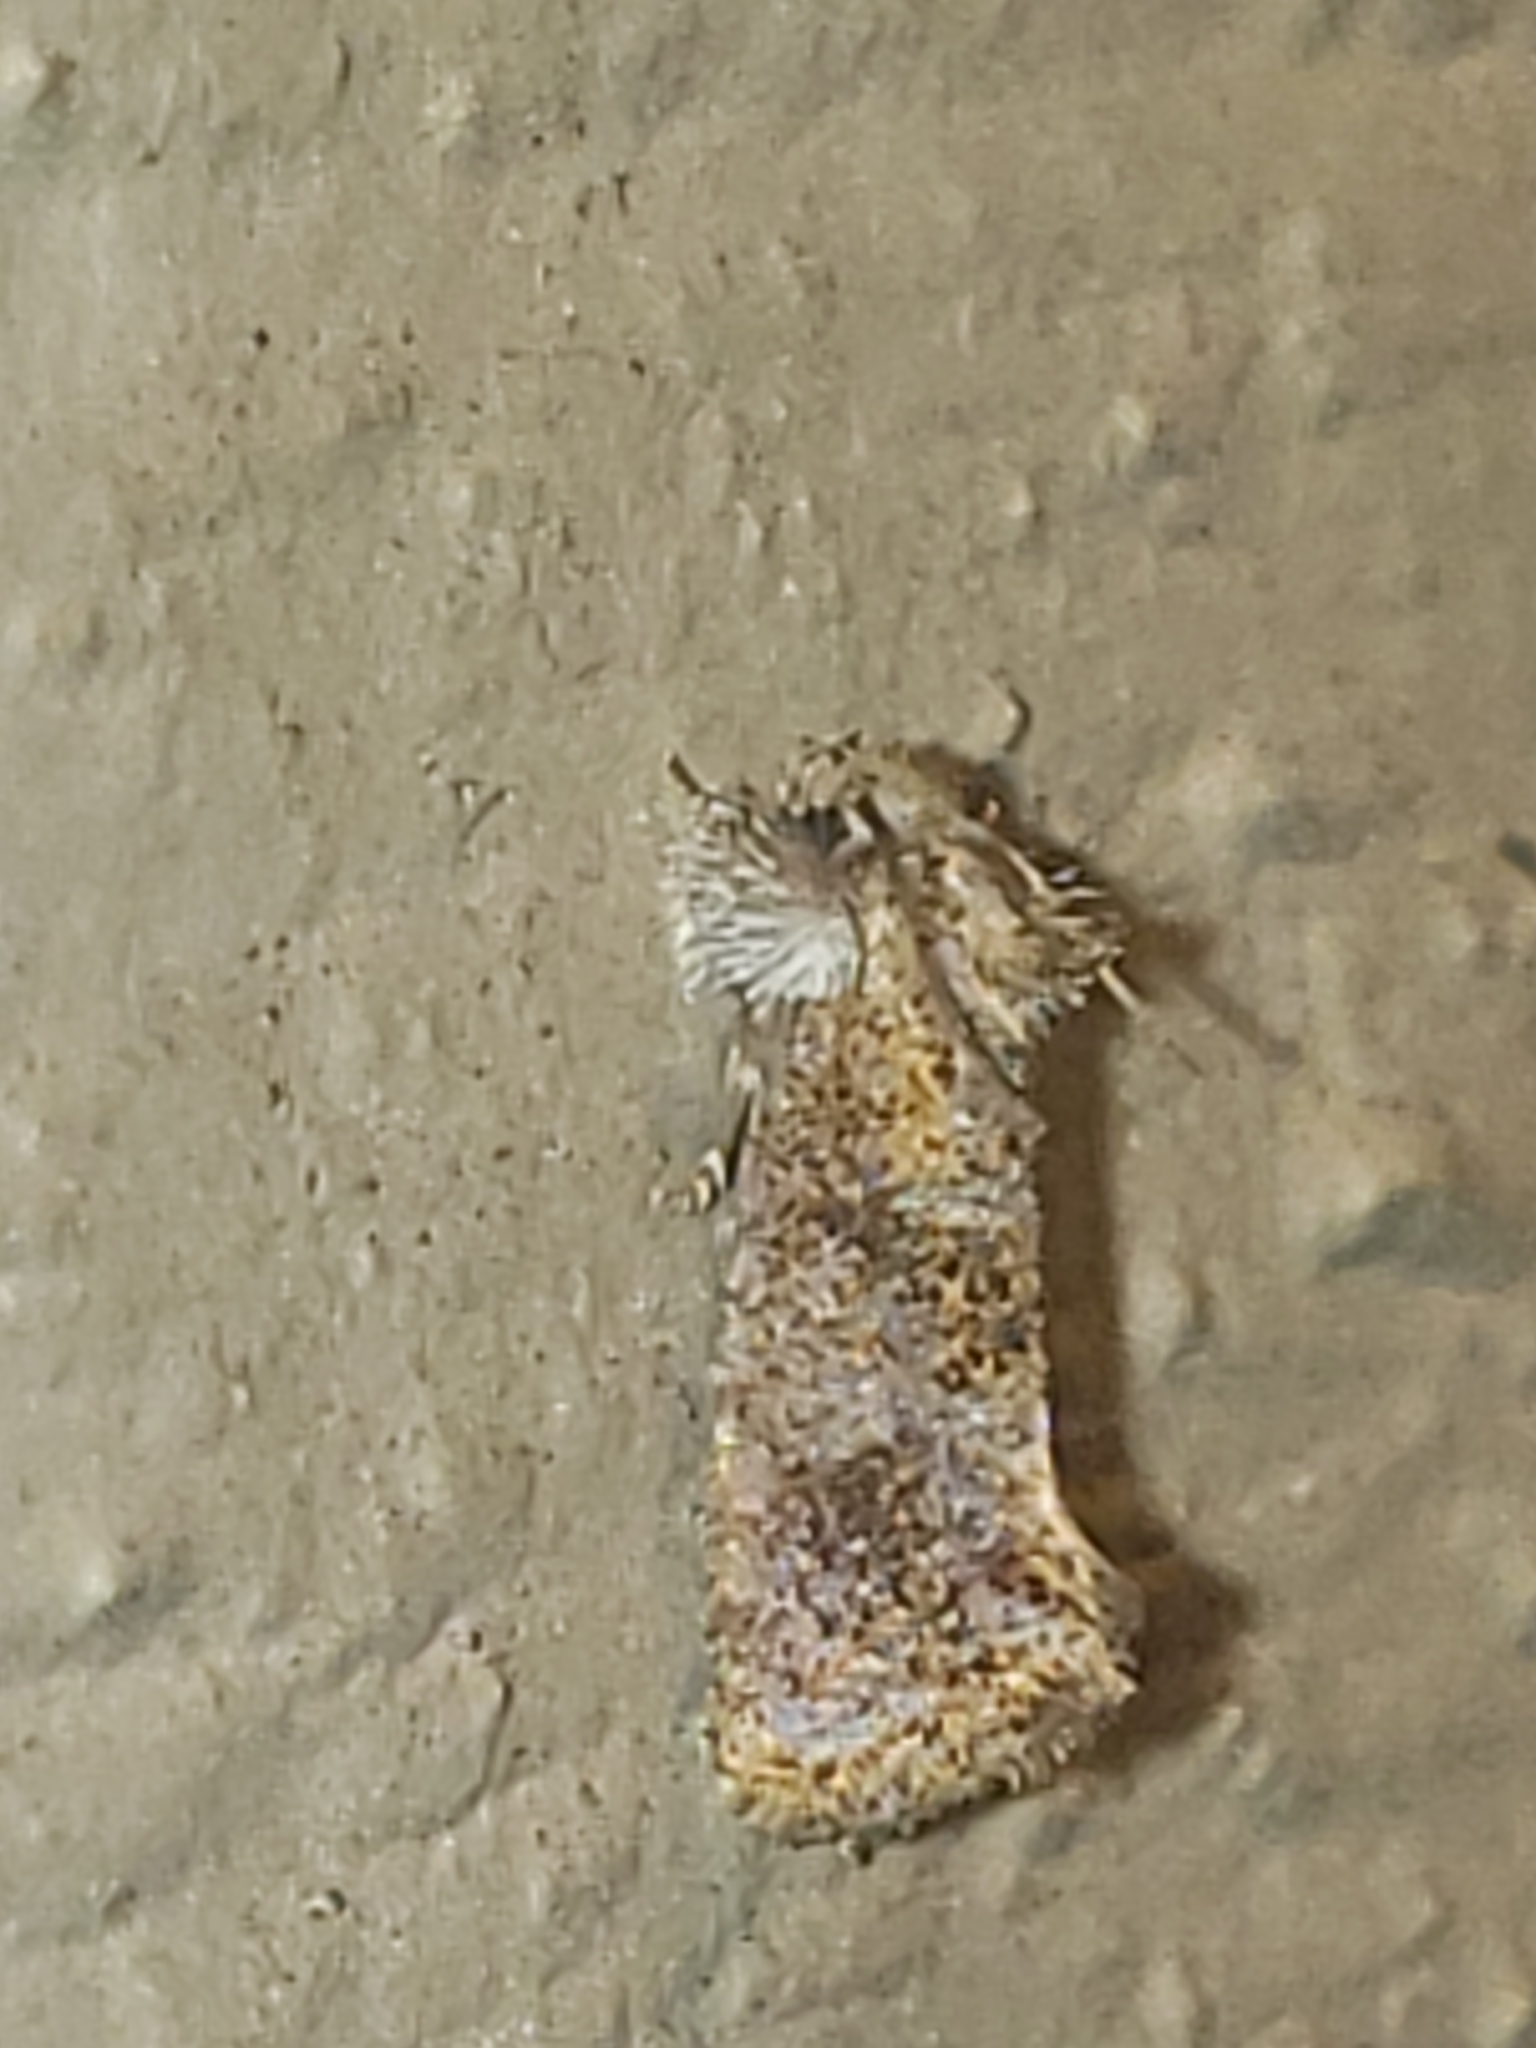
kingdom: Animalia
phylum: Arthropoda
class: Insecta
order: Lepidoptera
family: Tineidae
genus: Acrolophus
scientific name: Acrolophus panamae
